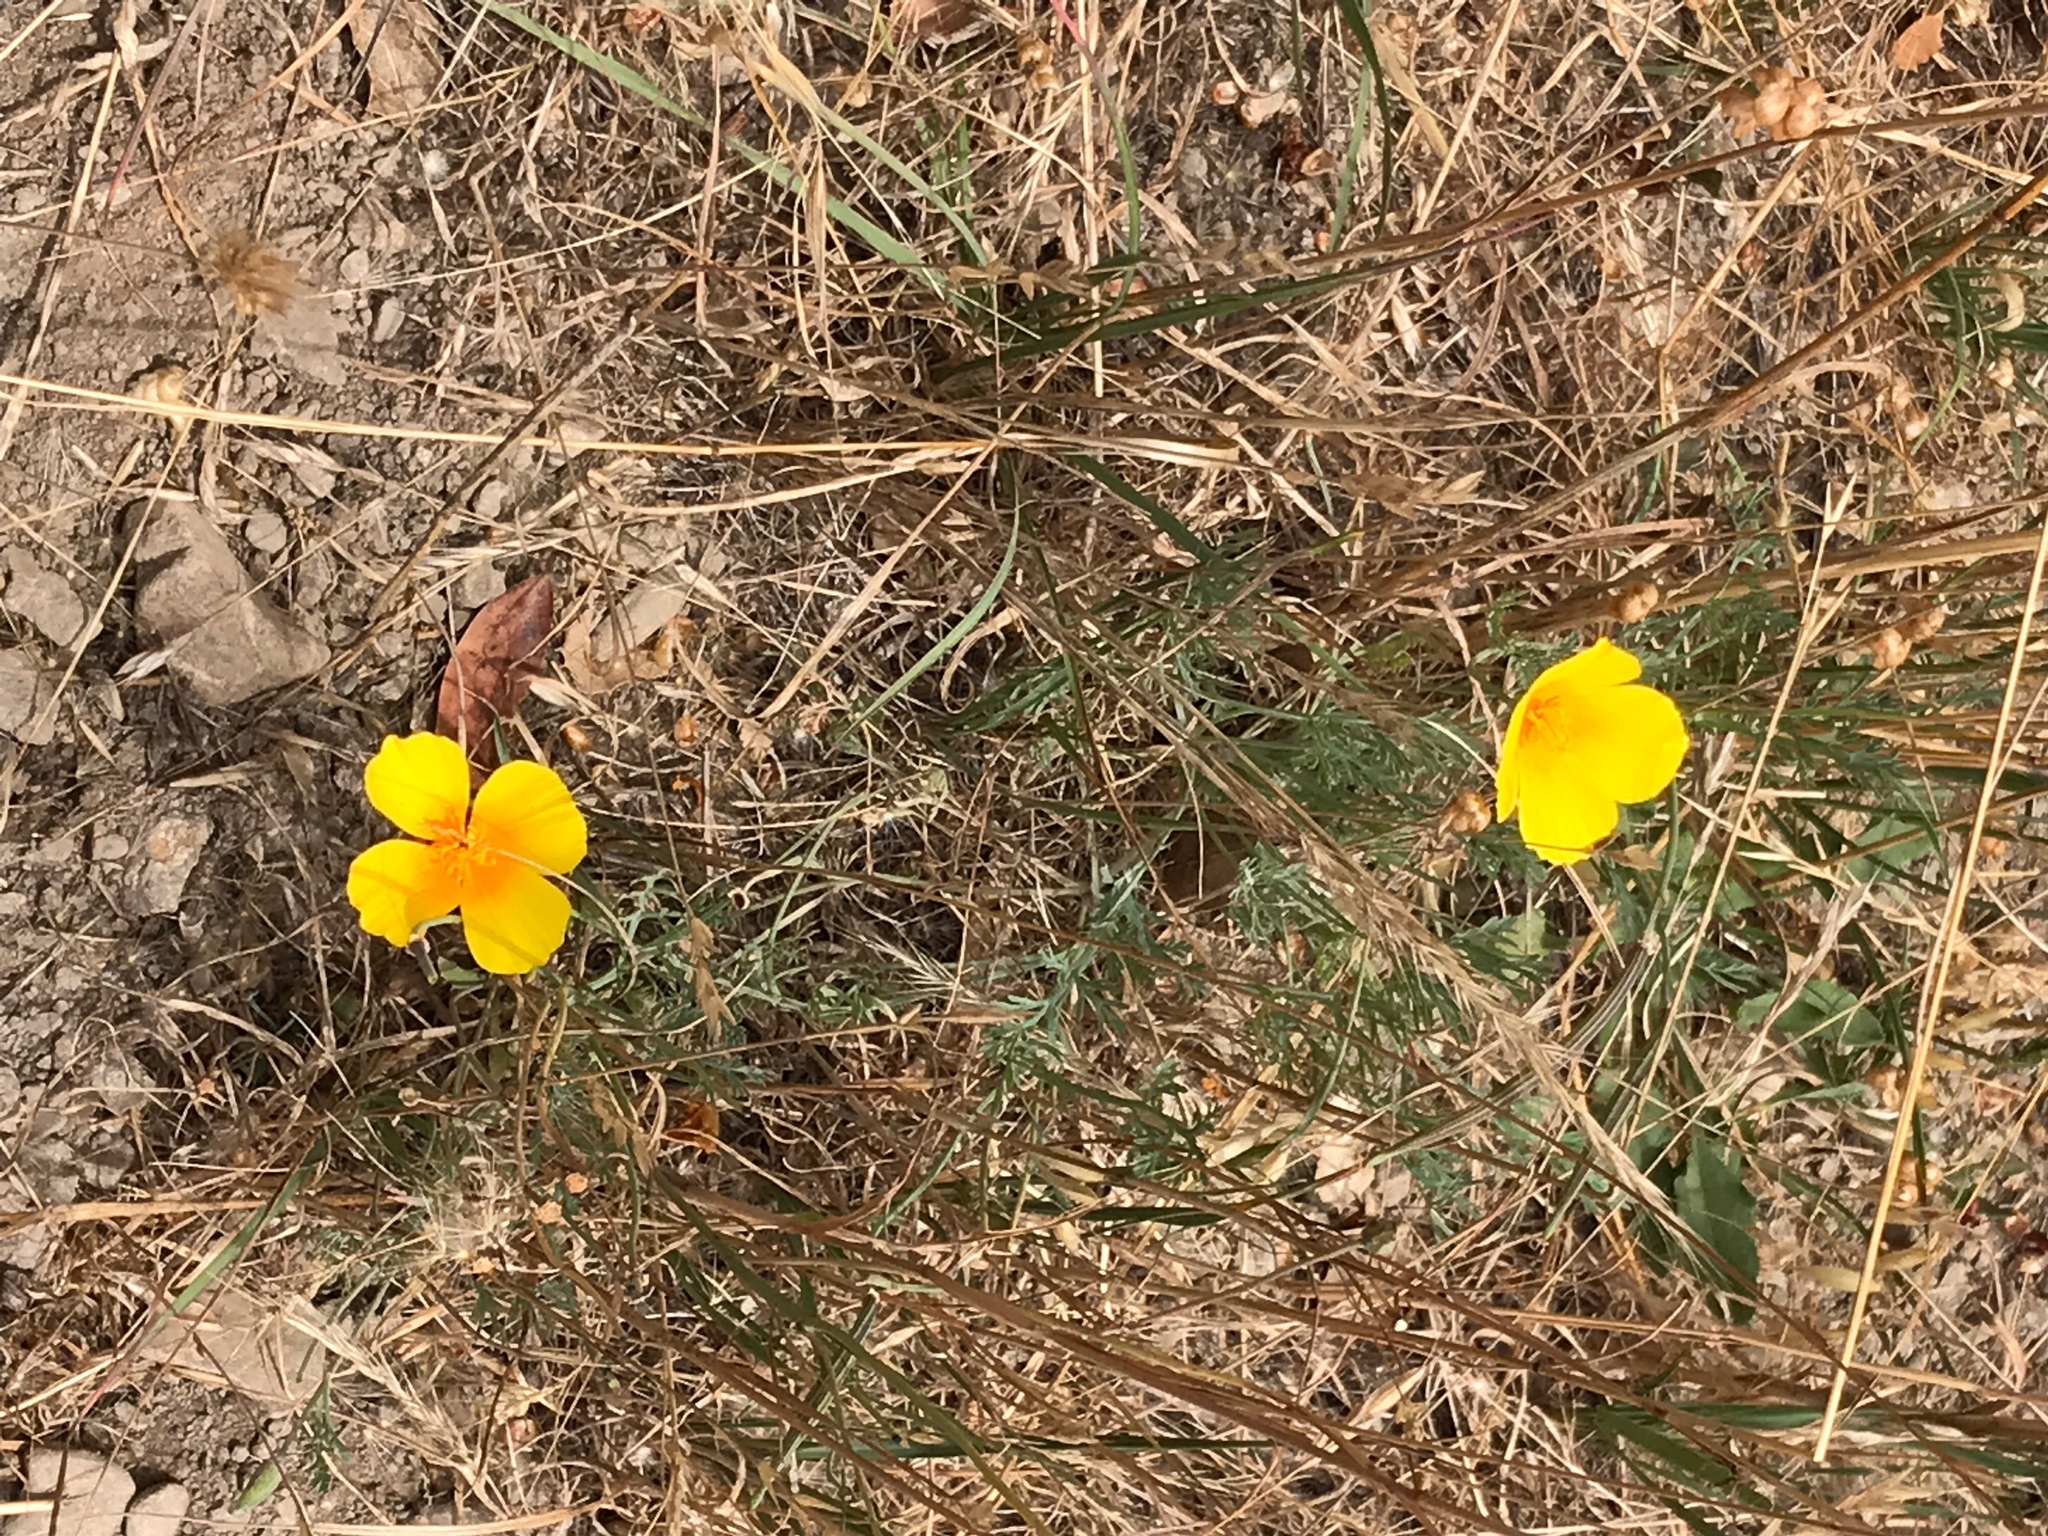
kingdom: Plantae
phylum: Tracheophyta
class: Magnoliopsida
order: Ranunculales
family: Papaveraceae
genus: Eschscholzia
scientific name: Eschscholzia californica
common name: California poppy
